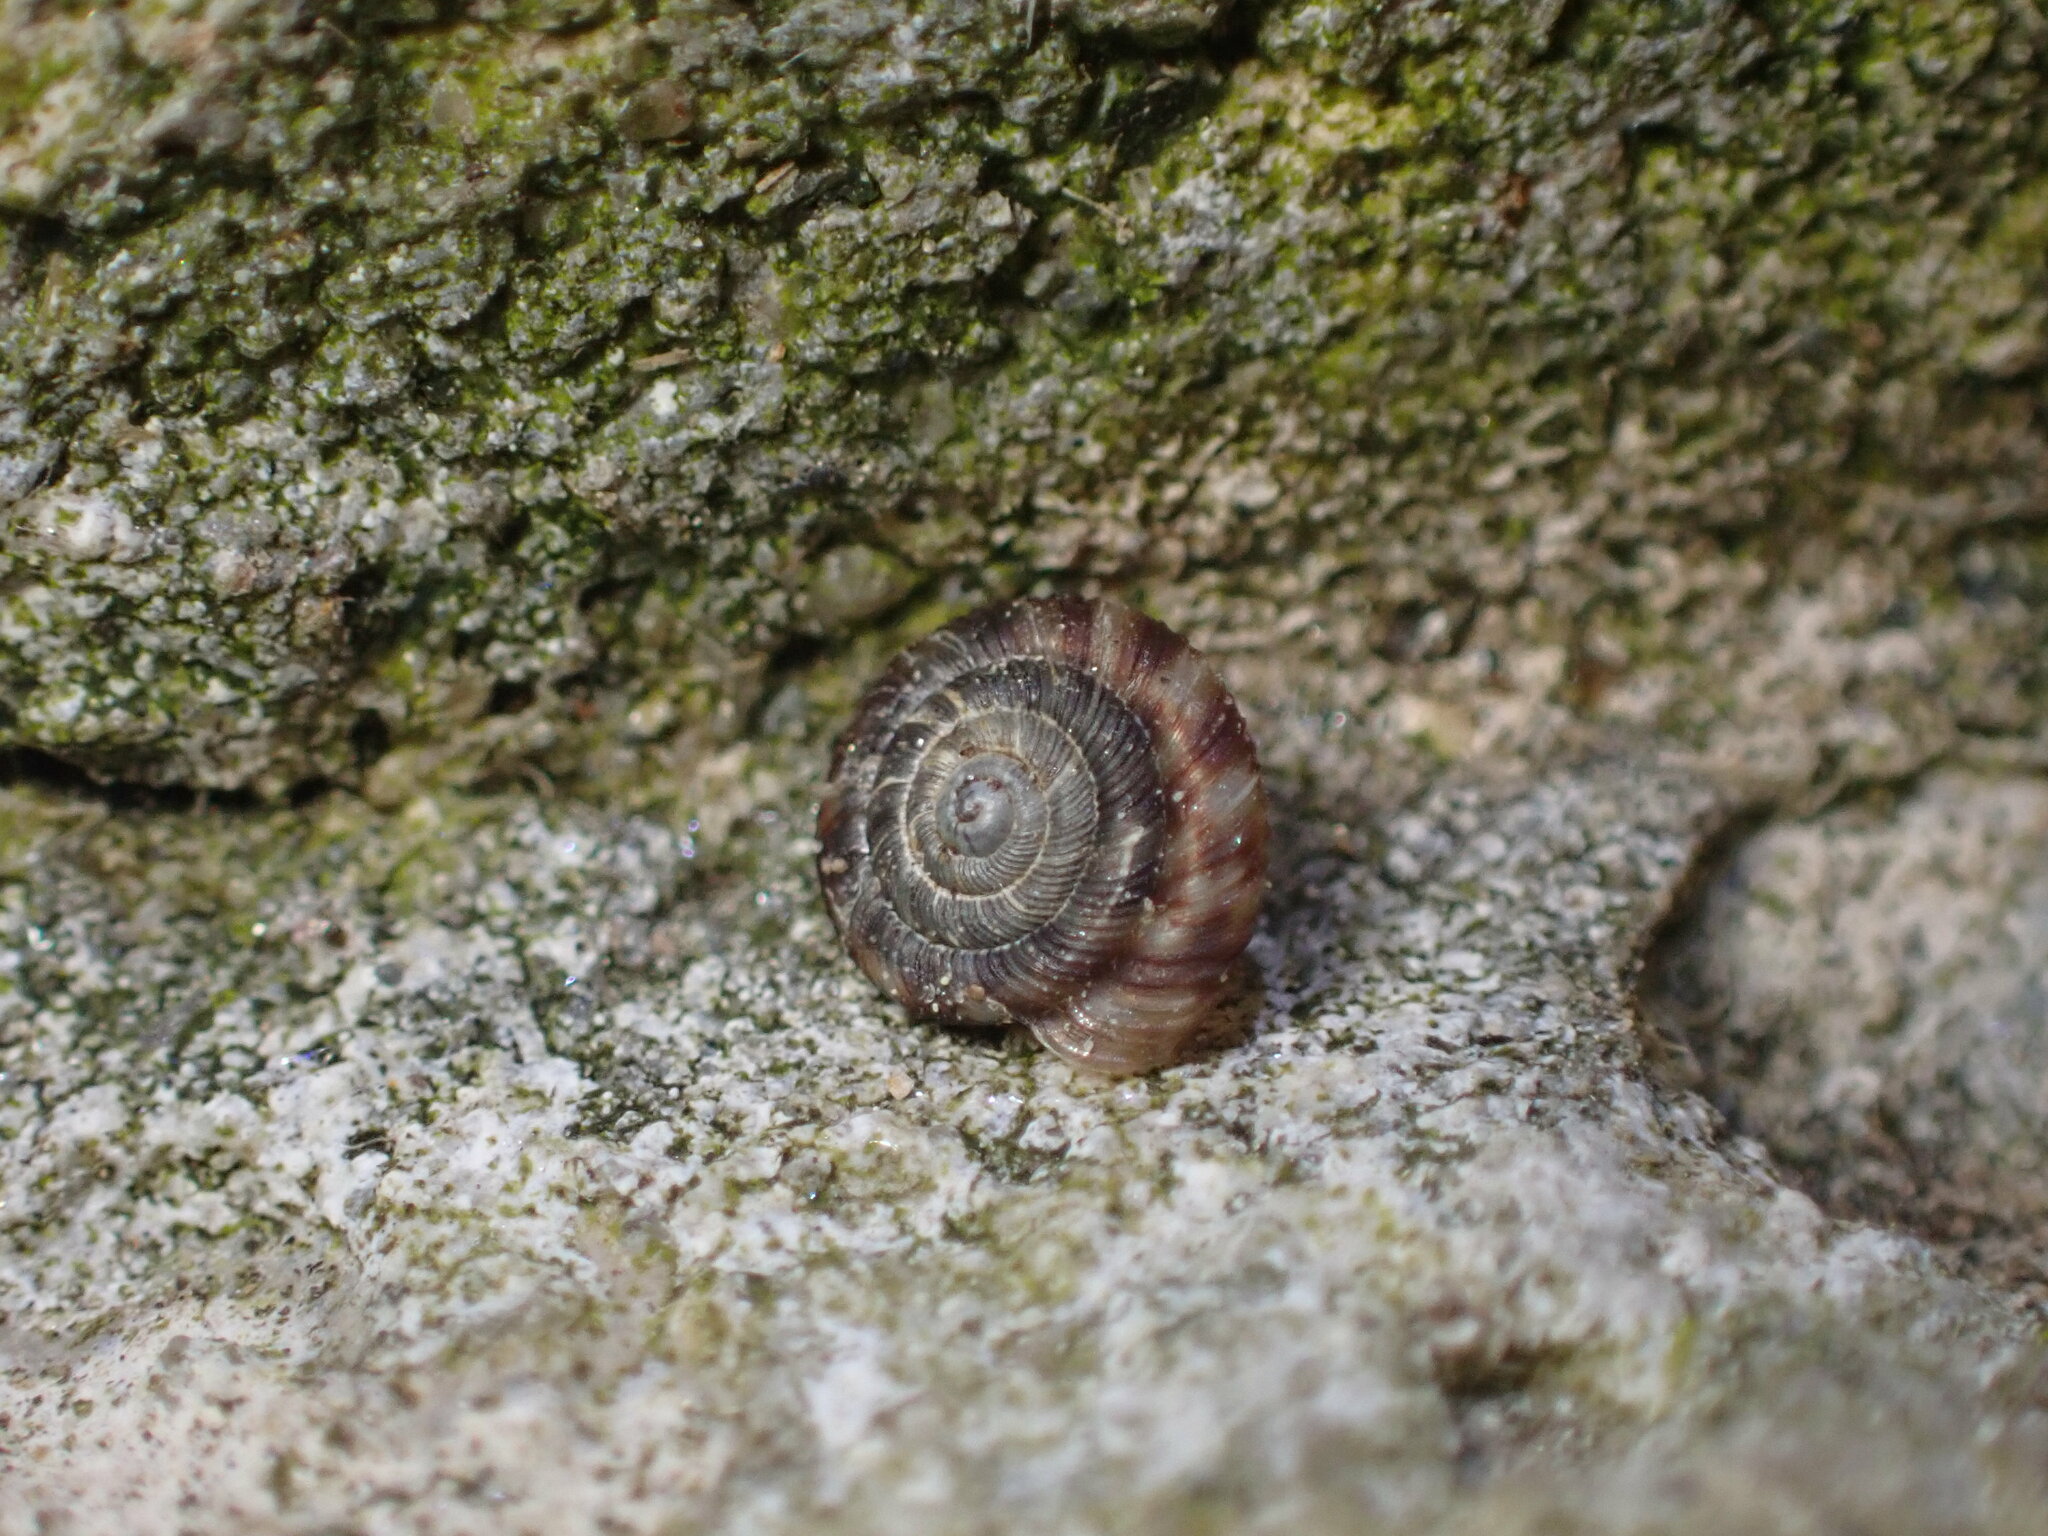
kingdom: Animalia
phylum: Mollusca
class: Gastropoda
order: Stylommatophora
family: Discidae
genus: Discus
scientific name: Discus rotundatus
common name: Rounded snail
